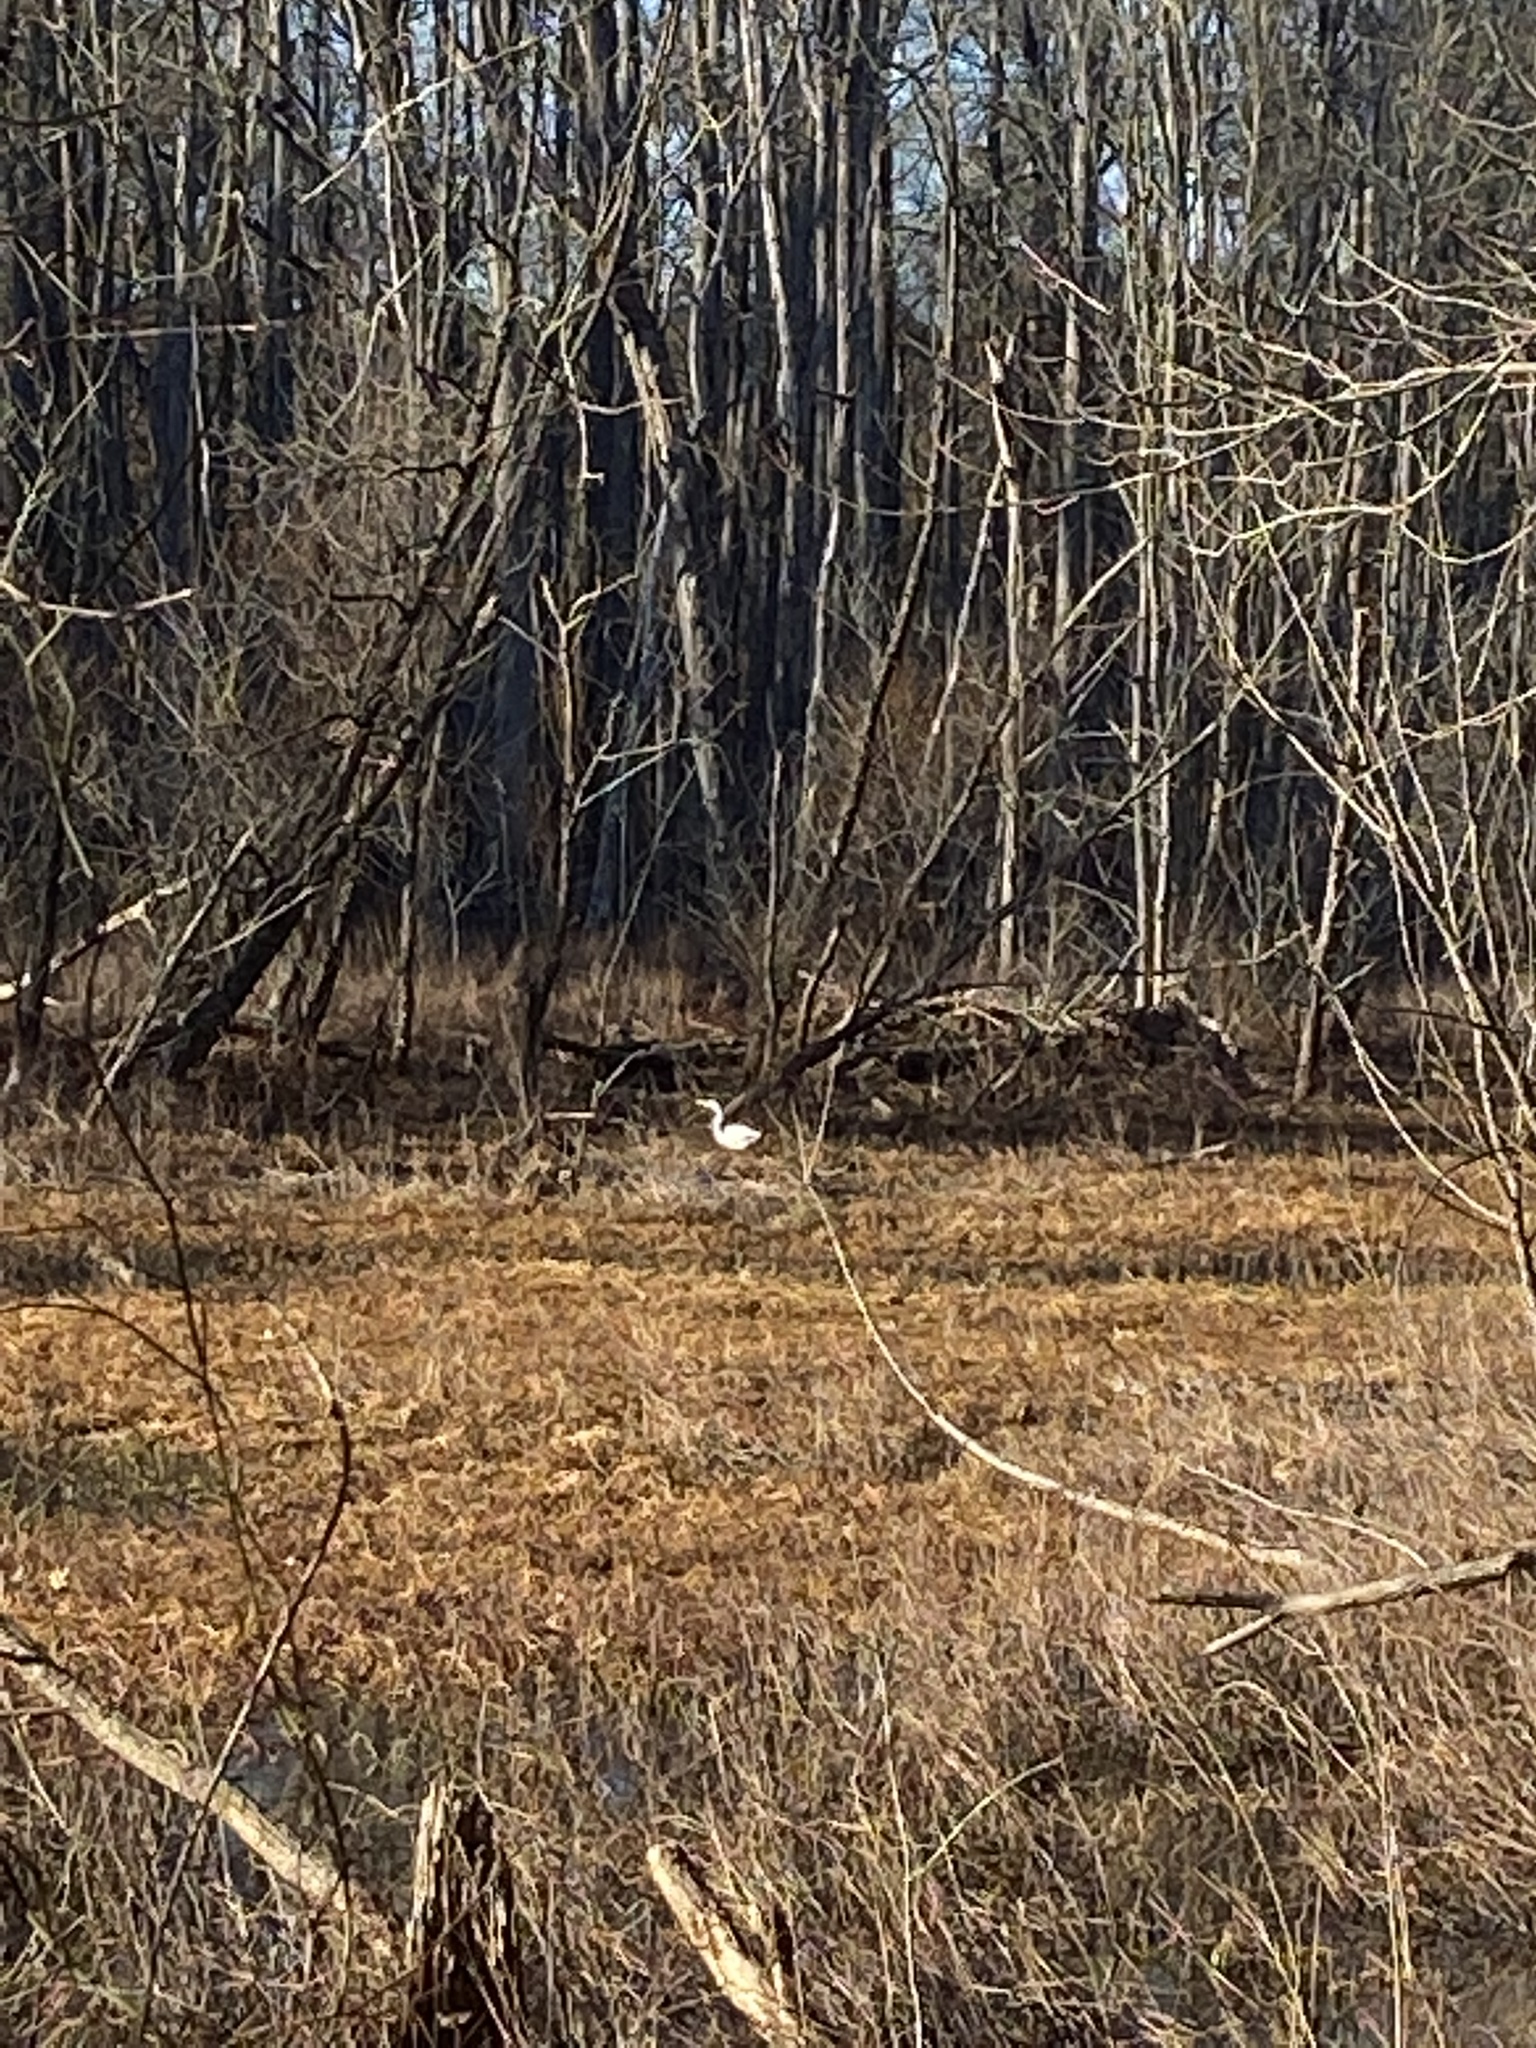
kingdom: Animalia
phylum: Chordata
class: Aves
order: Pelecaniformes
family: Ardeidae
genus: Ardea
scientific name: Ardea alba
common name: Great egret
